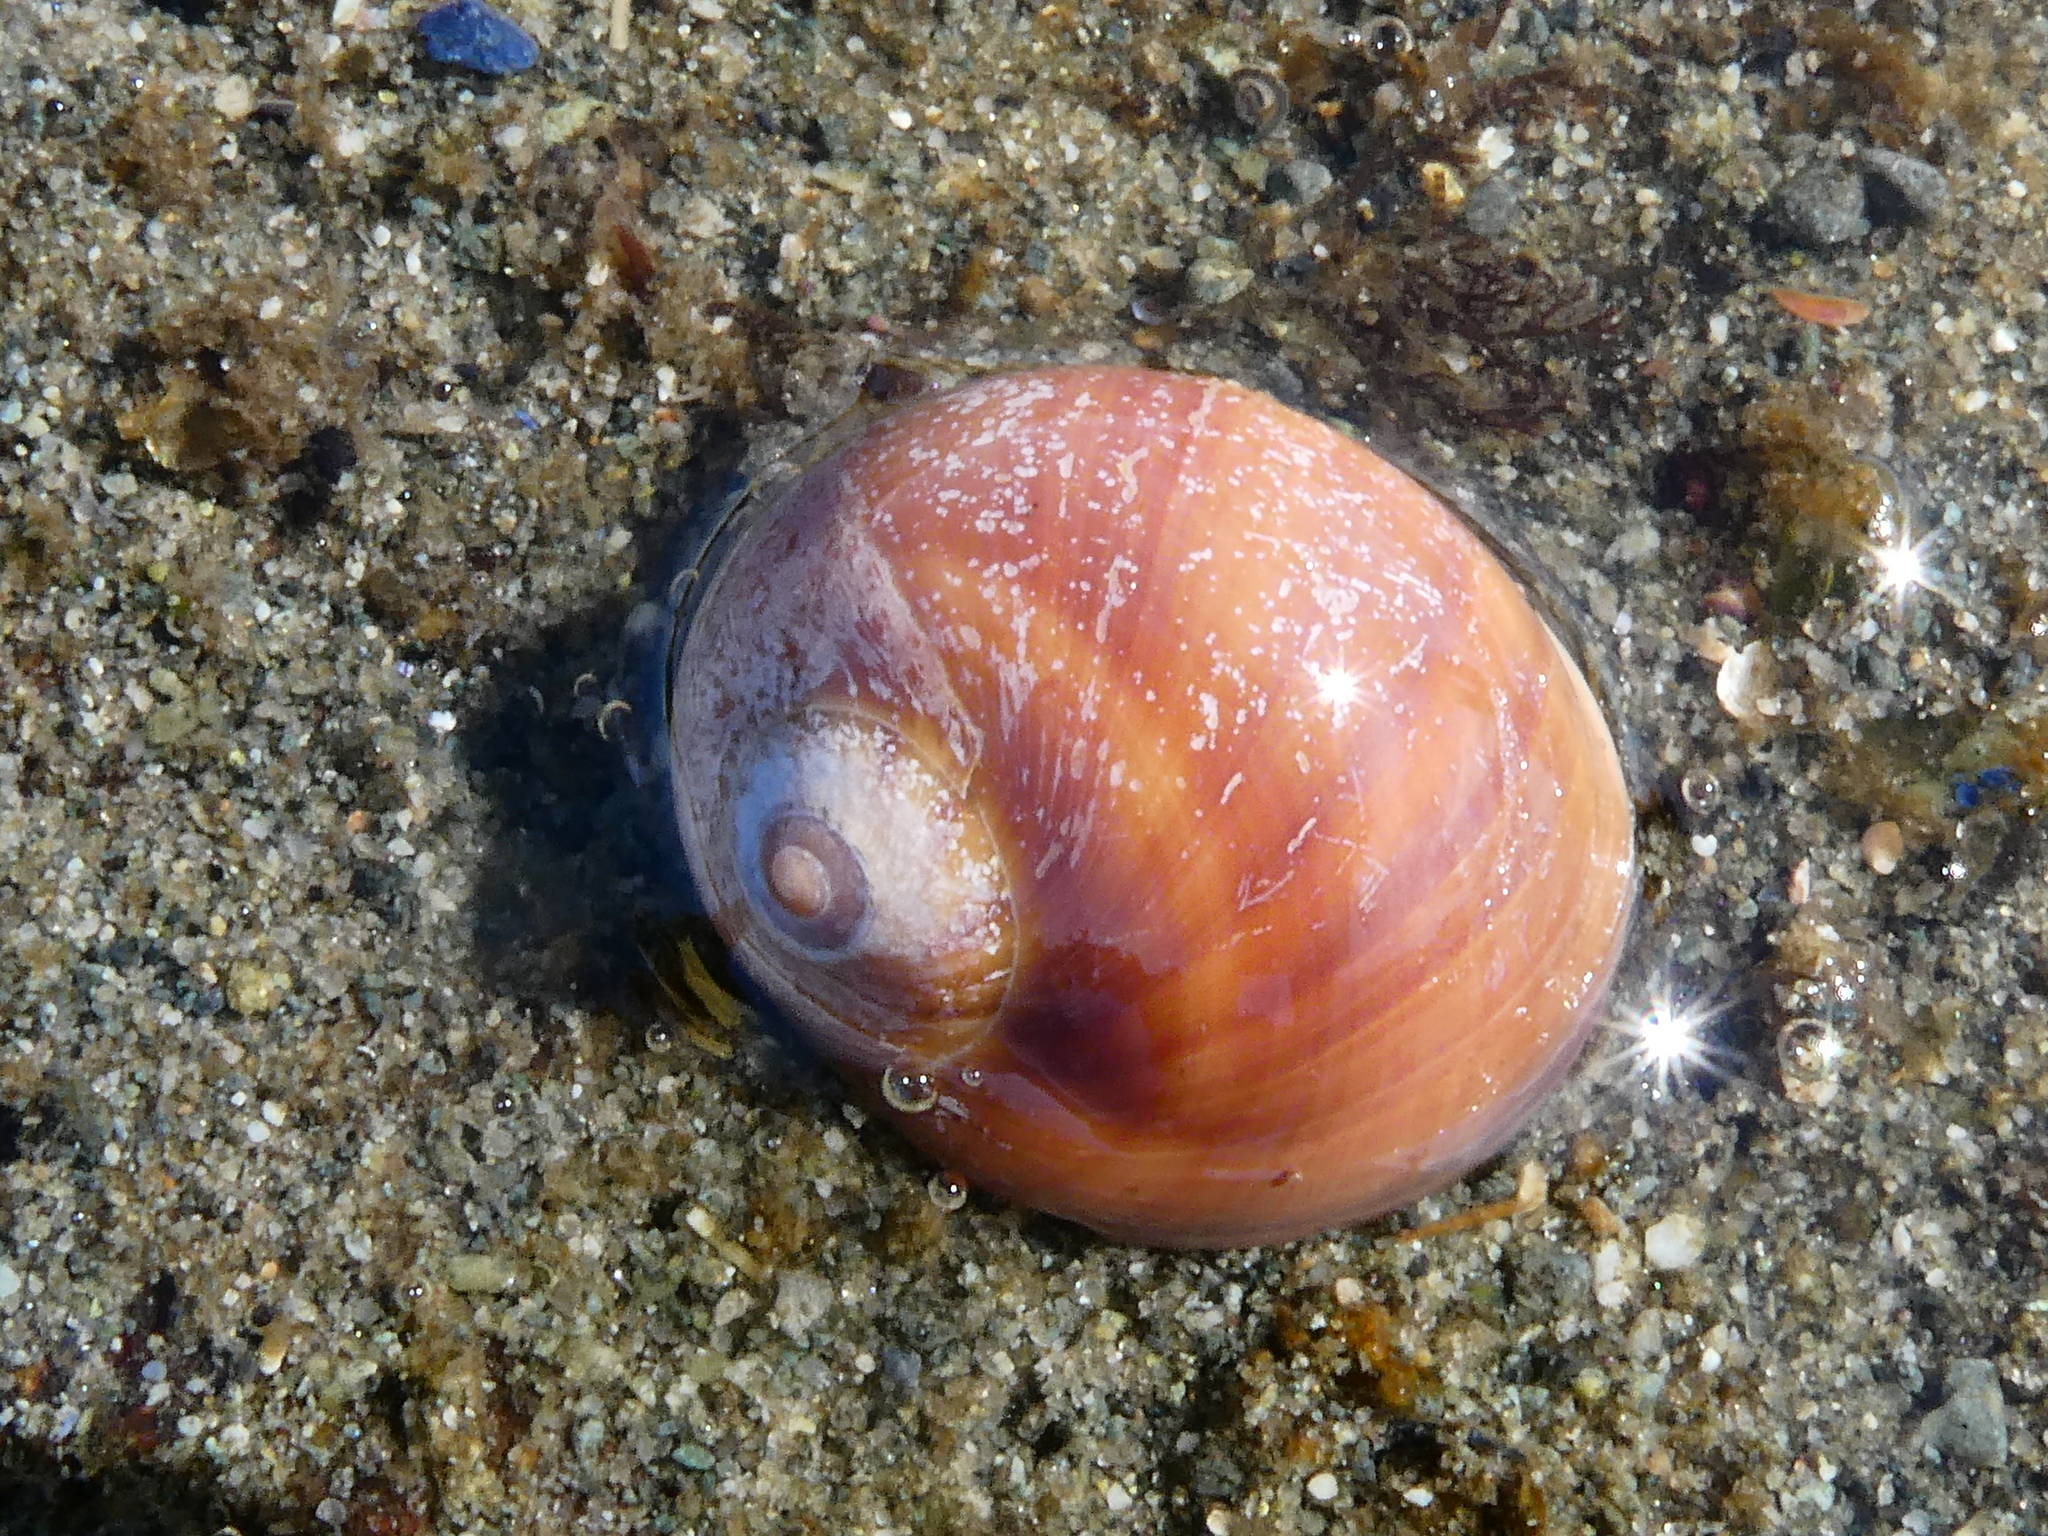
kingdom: Animalia
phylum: Mollusca
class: Gastropoda
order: Littorinimorpha
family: Naticidae
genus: Cryptonatica
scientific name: Cryptonatica aleutica
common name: Aleutian moon snail
